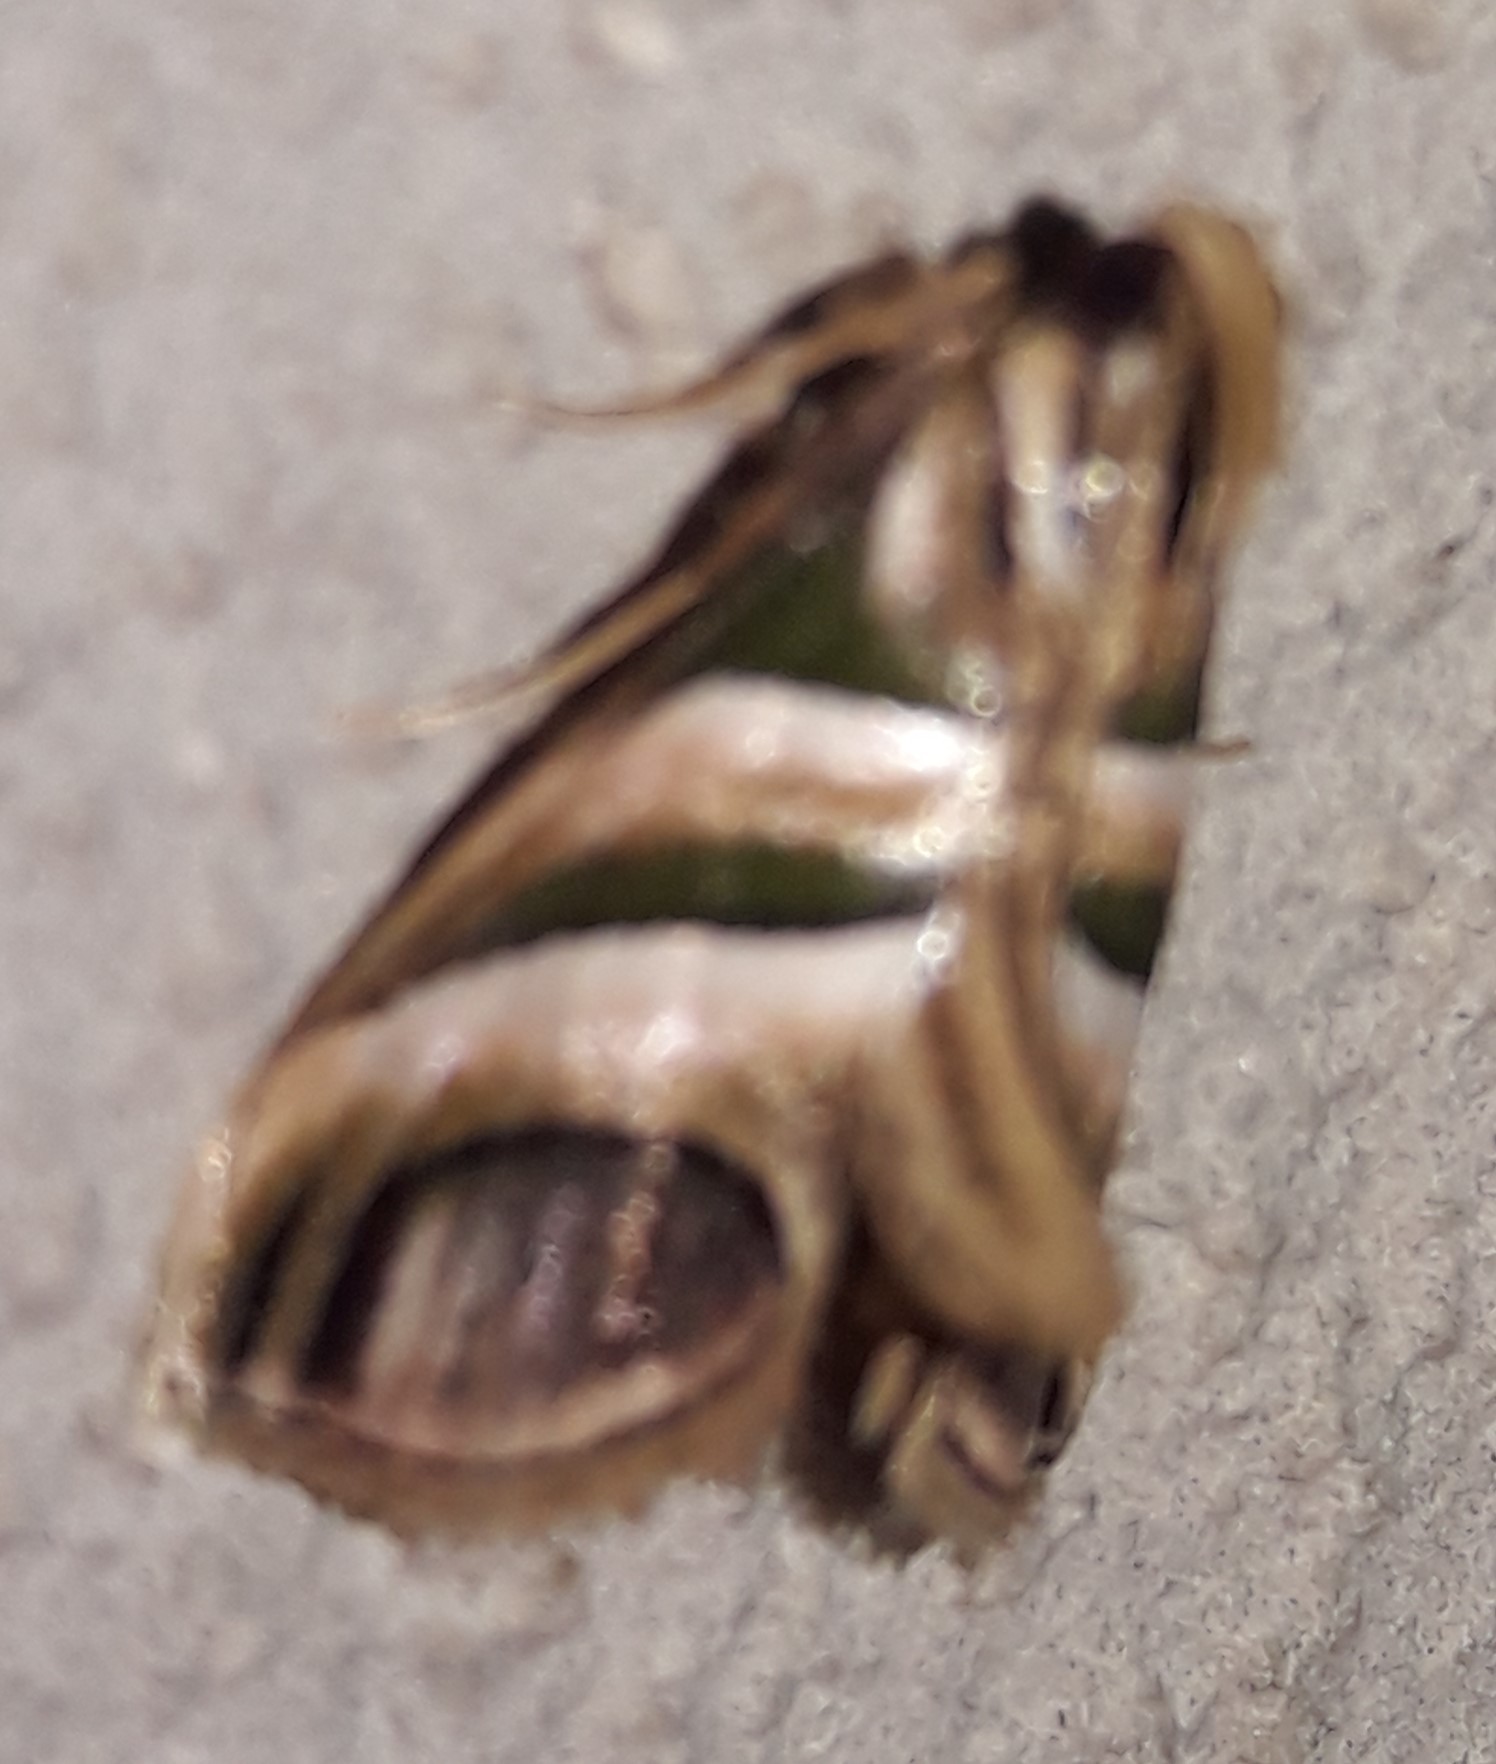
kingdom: Animalia
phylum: Arthropoda
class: Insecta
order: Lepidoptera
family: Pyralidae
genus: Incarcha
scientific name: Incarcha argentilinea
